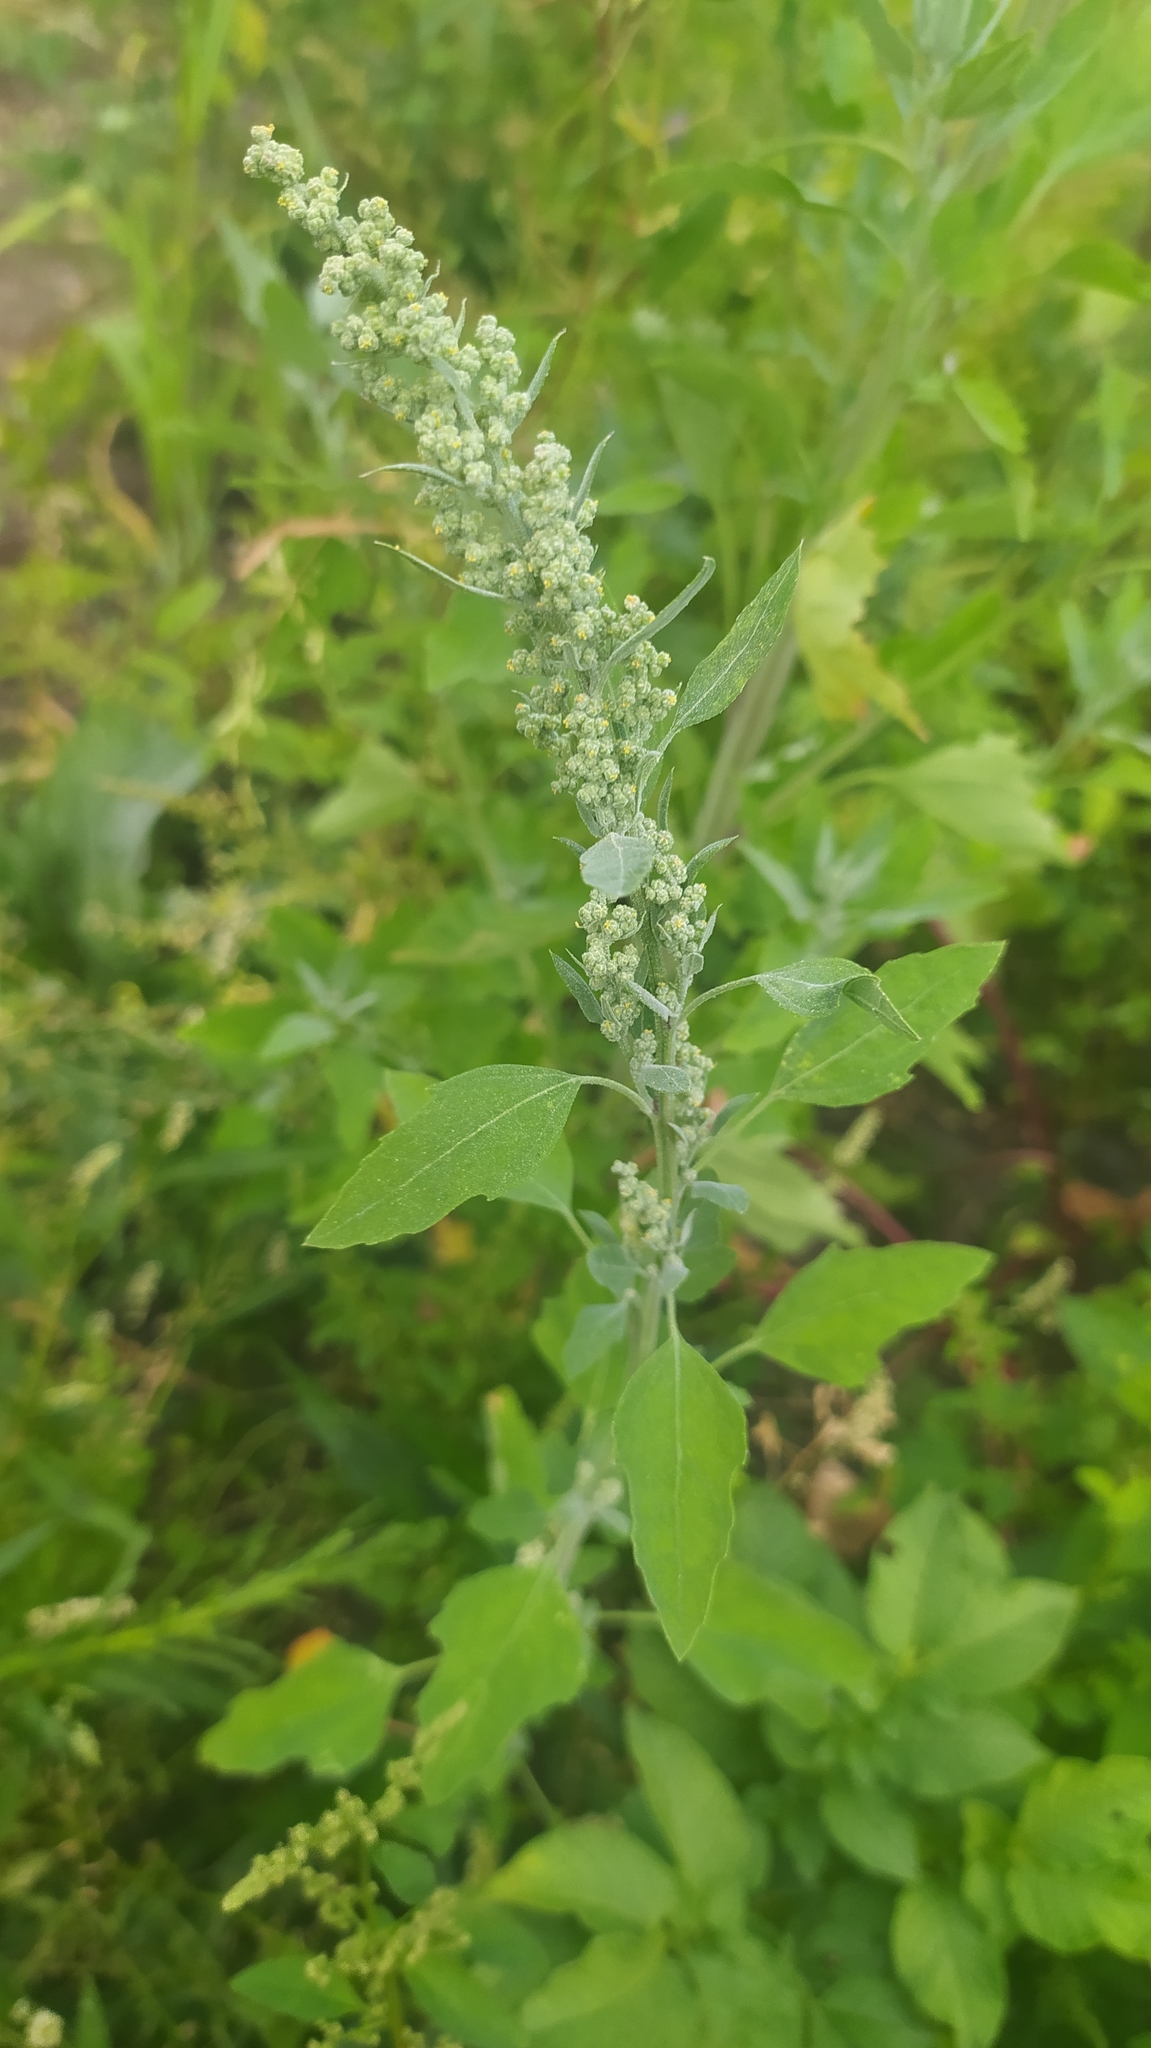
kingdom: Plantae
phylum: Tracheophyta
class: Magnoliopsida
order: Caryophyllales
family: Amaranthaceae
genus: Chenopodium
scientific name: Chenopodium album
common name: Fat-hen
